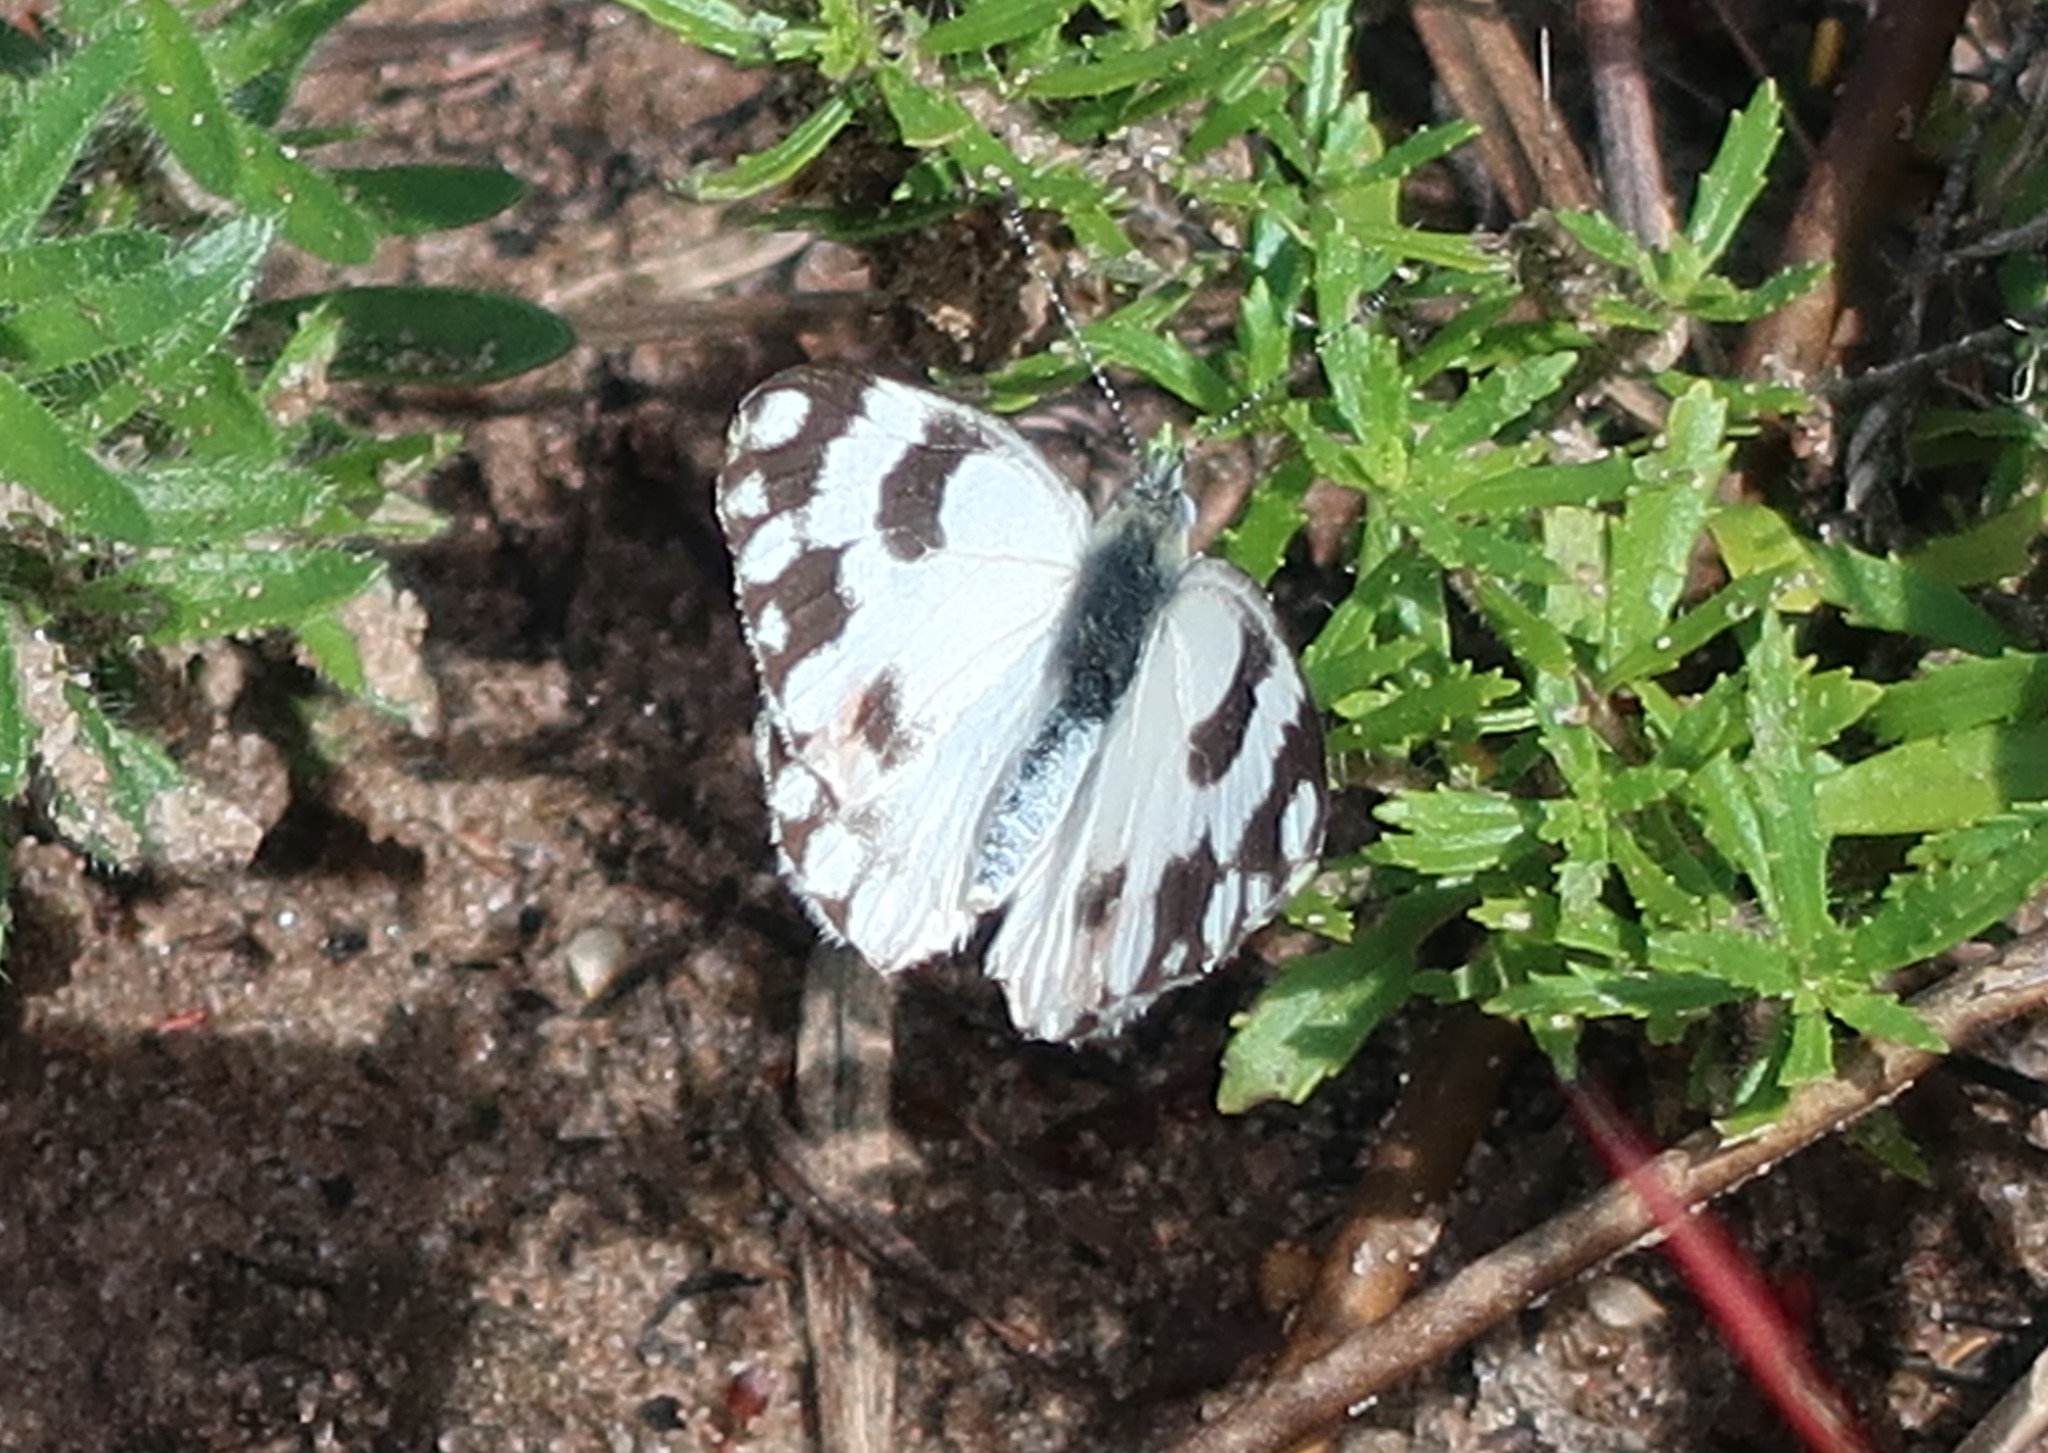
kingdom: Animalia
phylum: Arthropoda
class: Insecta
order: Lepidoptera
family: Pieridae
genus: Pontia
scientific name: Pontia helice
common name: Meadow white
